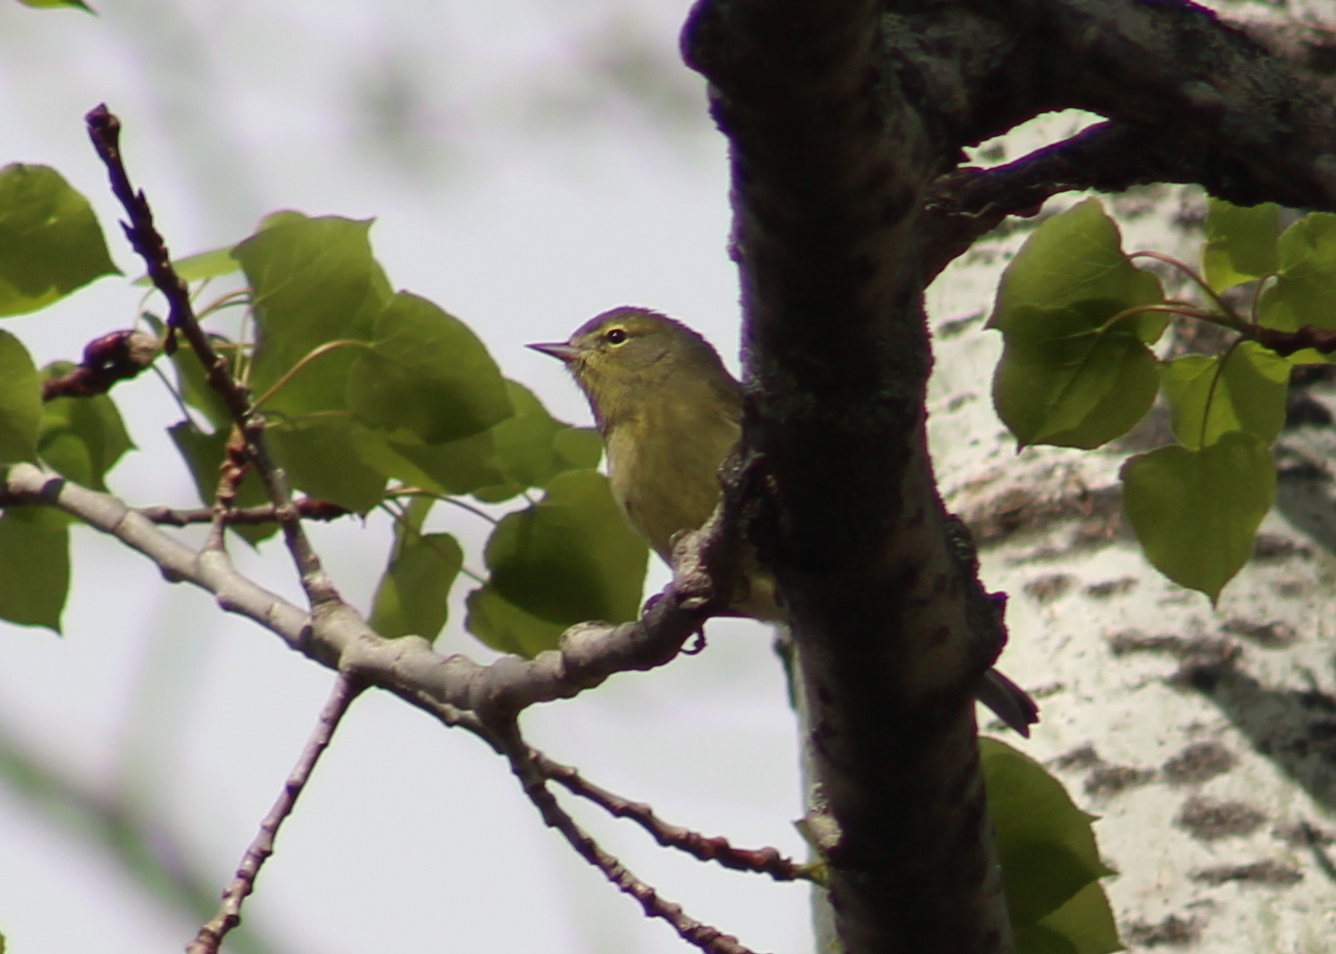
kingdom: Animalia
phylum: Chordata
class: Aves
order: Passeriformes
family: Parulidae
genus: Leiothlypis
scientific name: Leiothlypis celata
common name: Orange-crowned warbler
